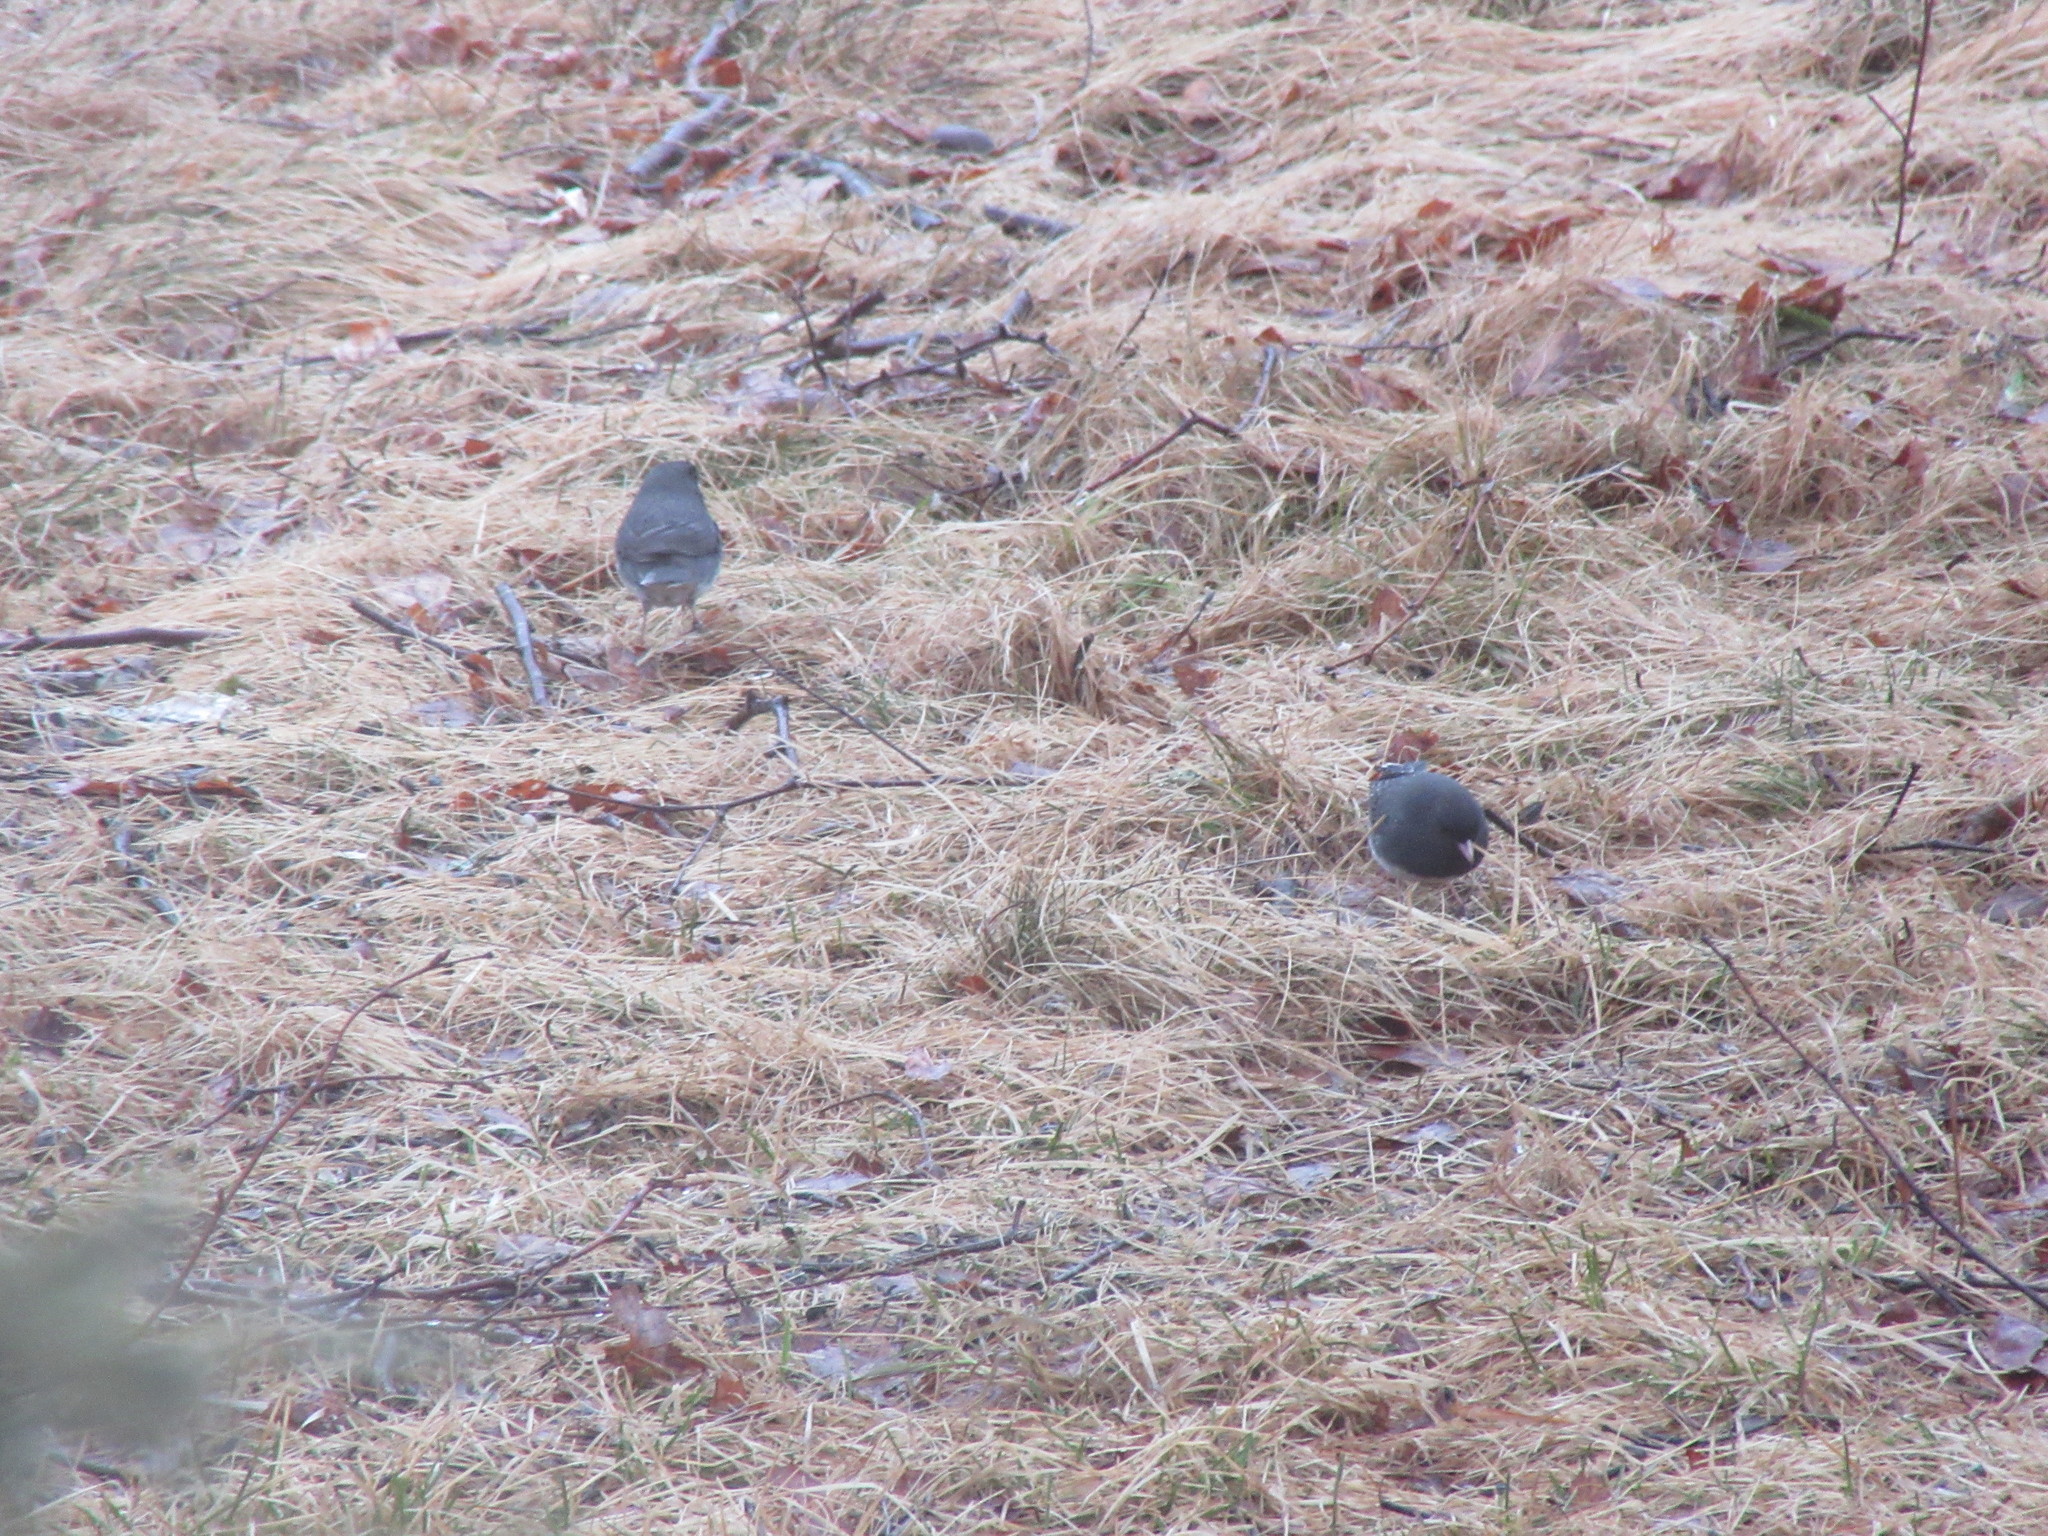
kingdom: Animalia
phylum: Chordata
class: Aves
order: Passeriformes
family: Passerellidae
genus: Junco
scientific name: Junco hyemalis
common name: Dark-eyed junco
